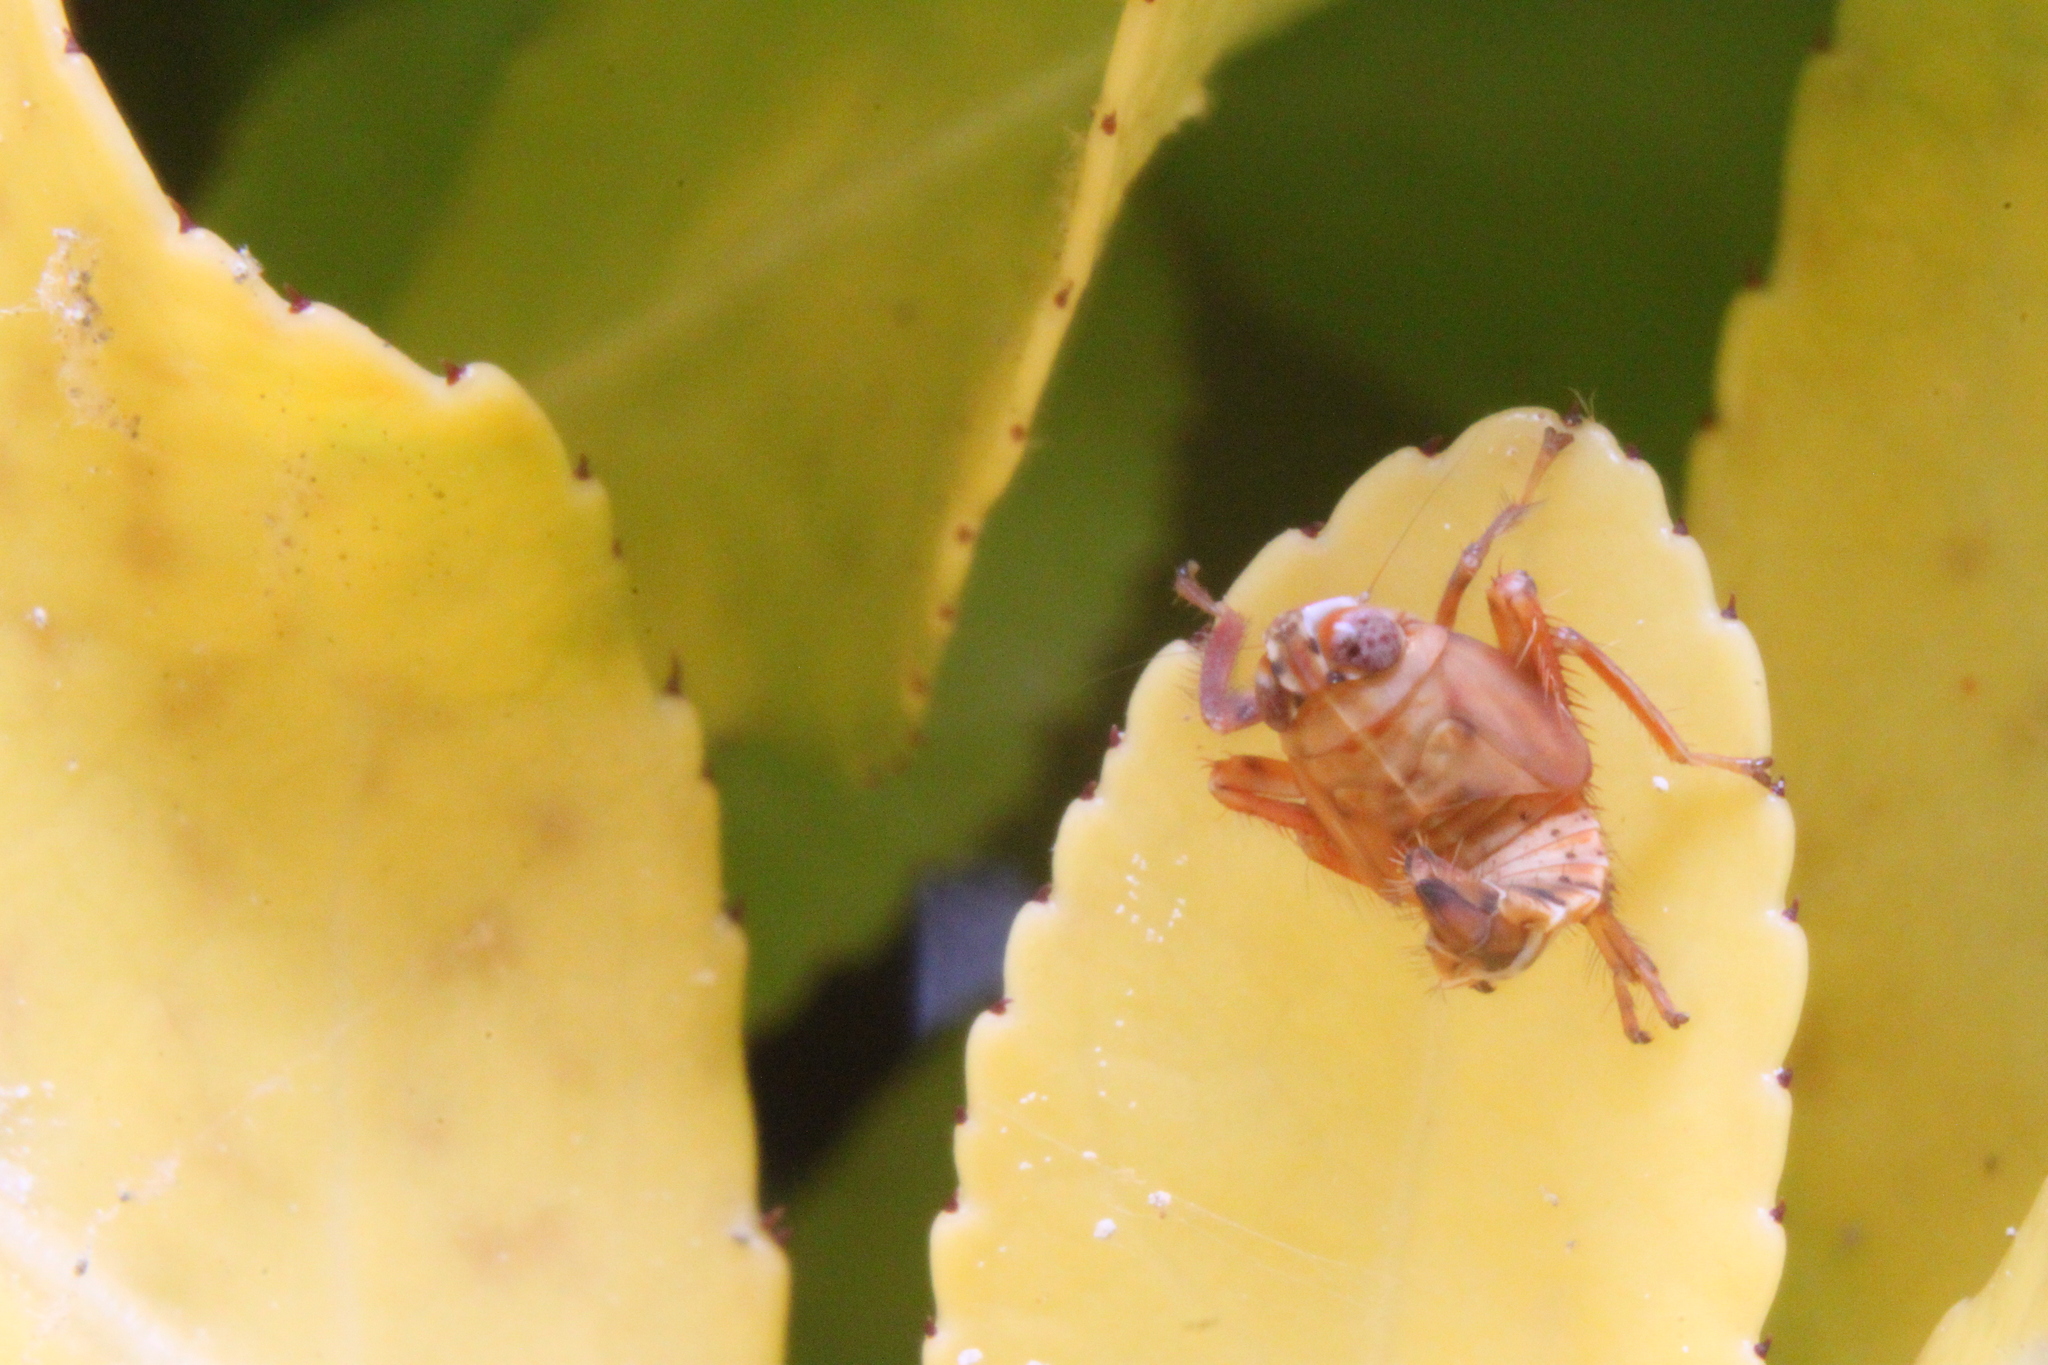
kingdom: Animalia
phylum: Arthropoda
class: Insecta
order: Hemiptera
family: Cicadellidae
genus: Jikradia
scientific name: Jikradia olitoria
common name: Coppery leafhopper
